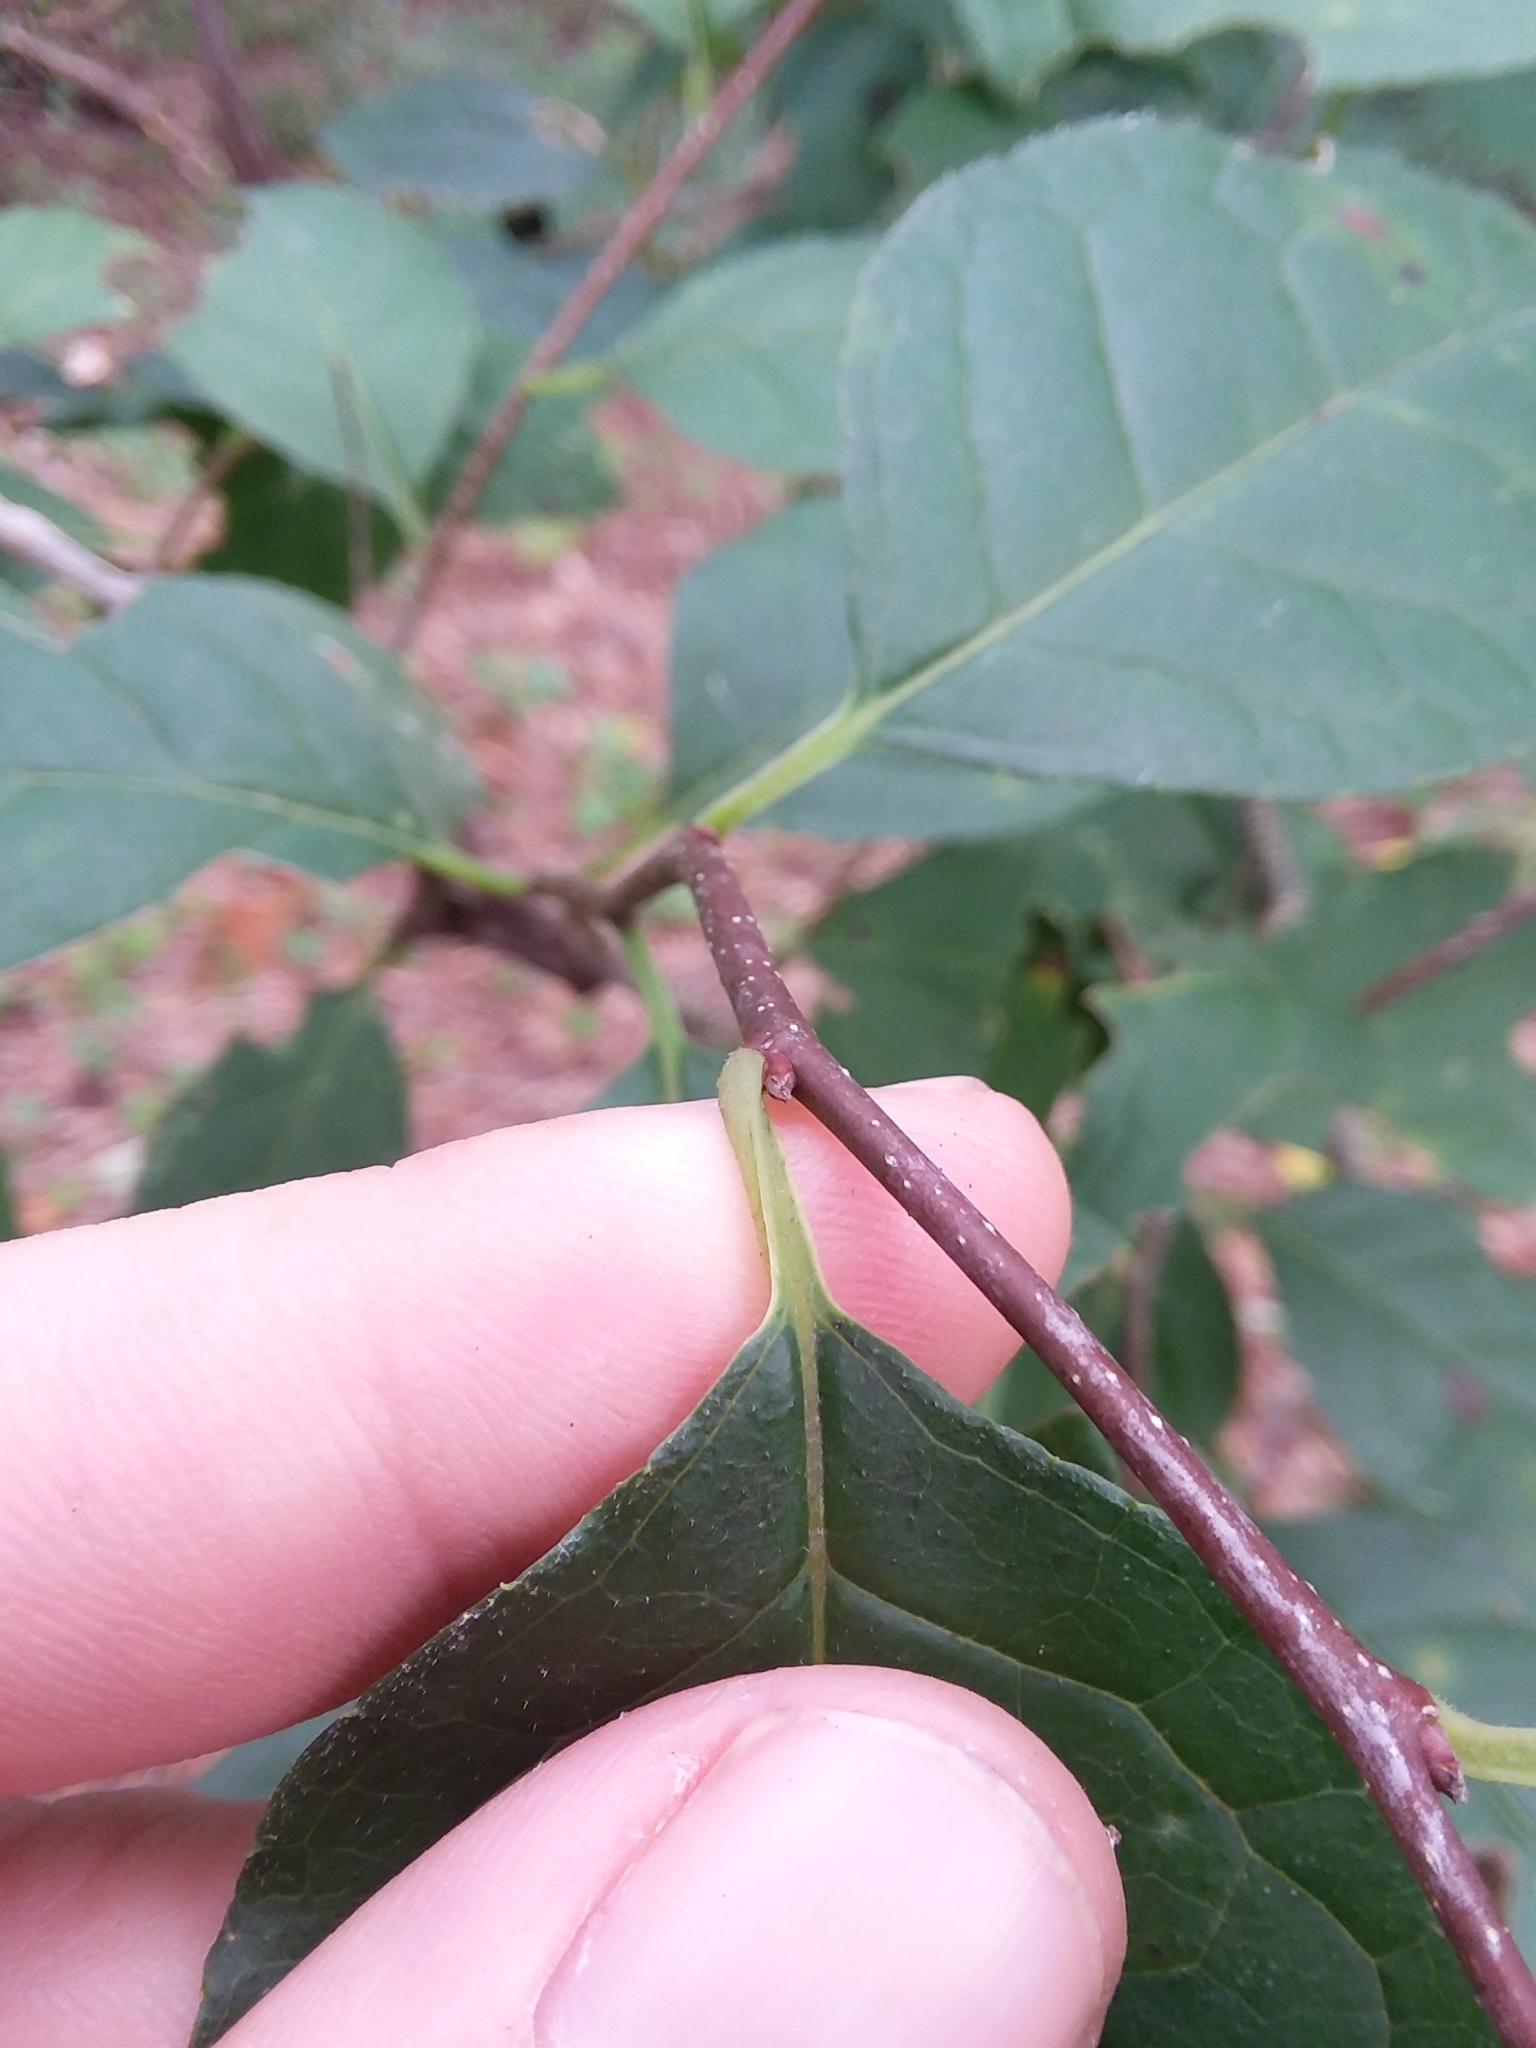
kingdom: Plantae
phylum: Tracheophyta
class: Magnoliopsida
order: Aquifoliales
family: Aquifoliaceae
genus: Ilex
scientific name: Ilex ambigua
